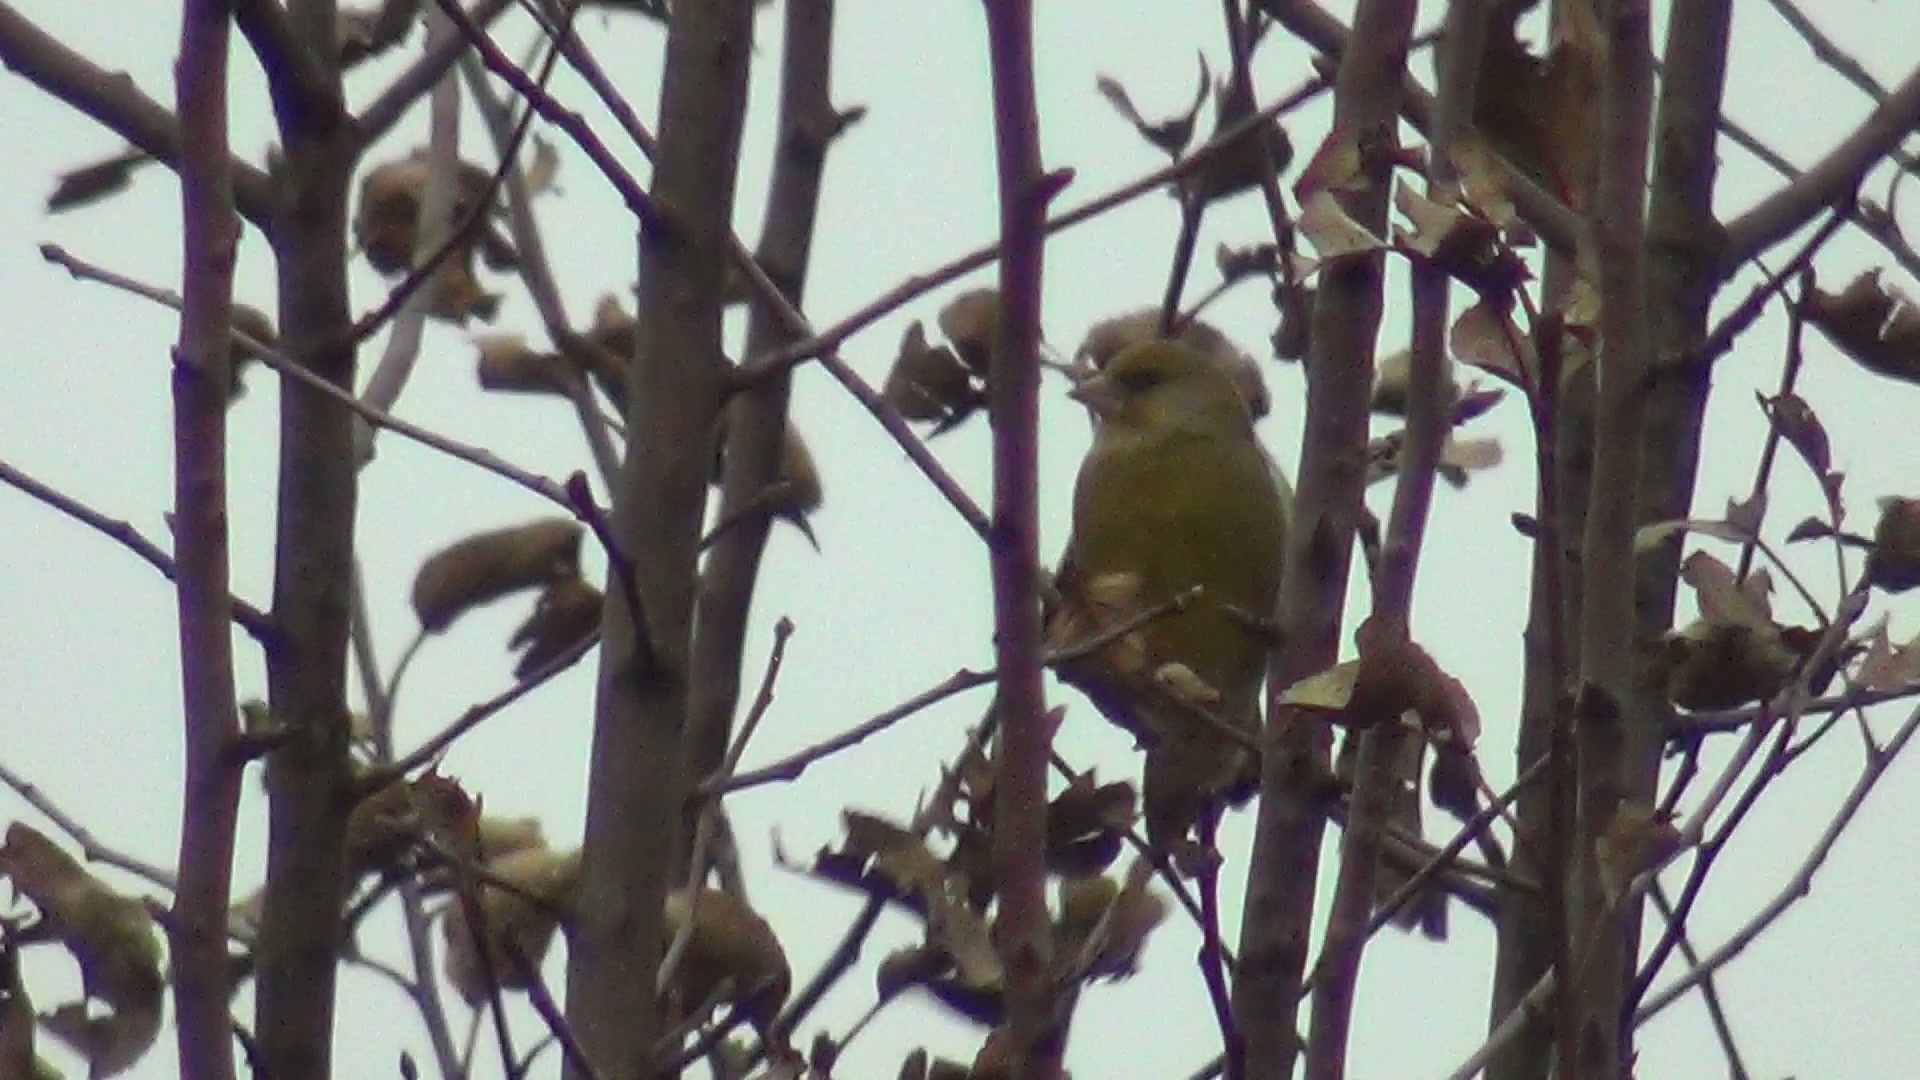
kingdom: Plantae
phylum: Tracheophyta
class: Liliopsida
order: Poales
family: Poaceae
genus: Chloris
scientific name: Chloris chloris
